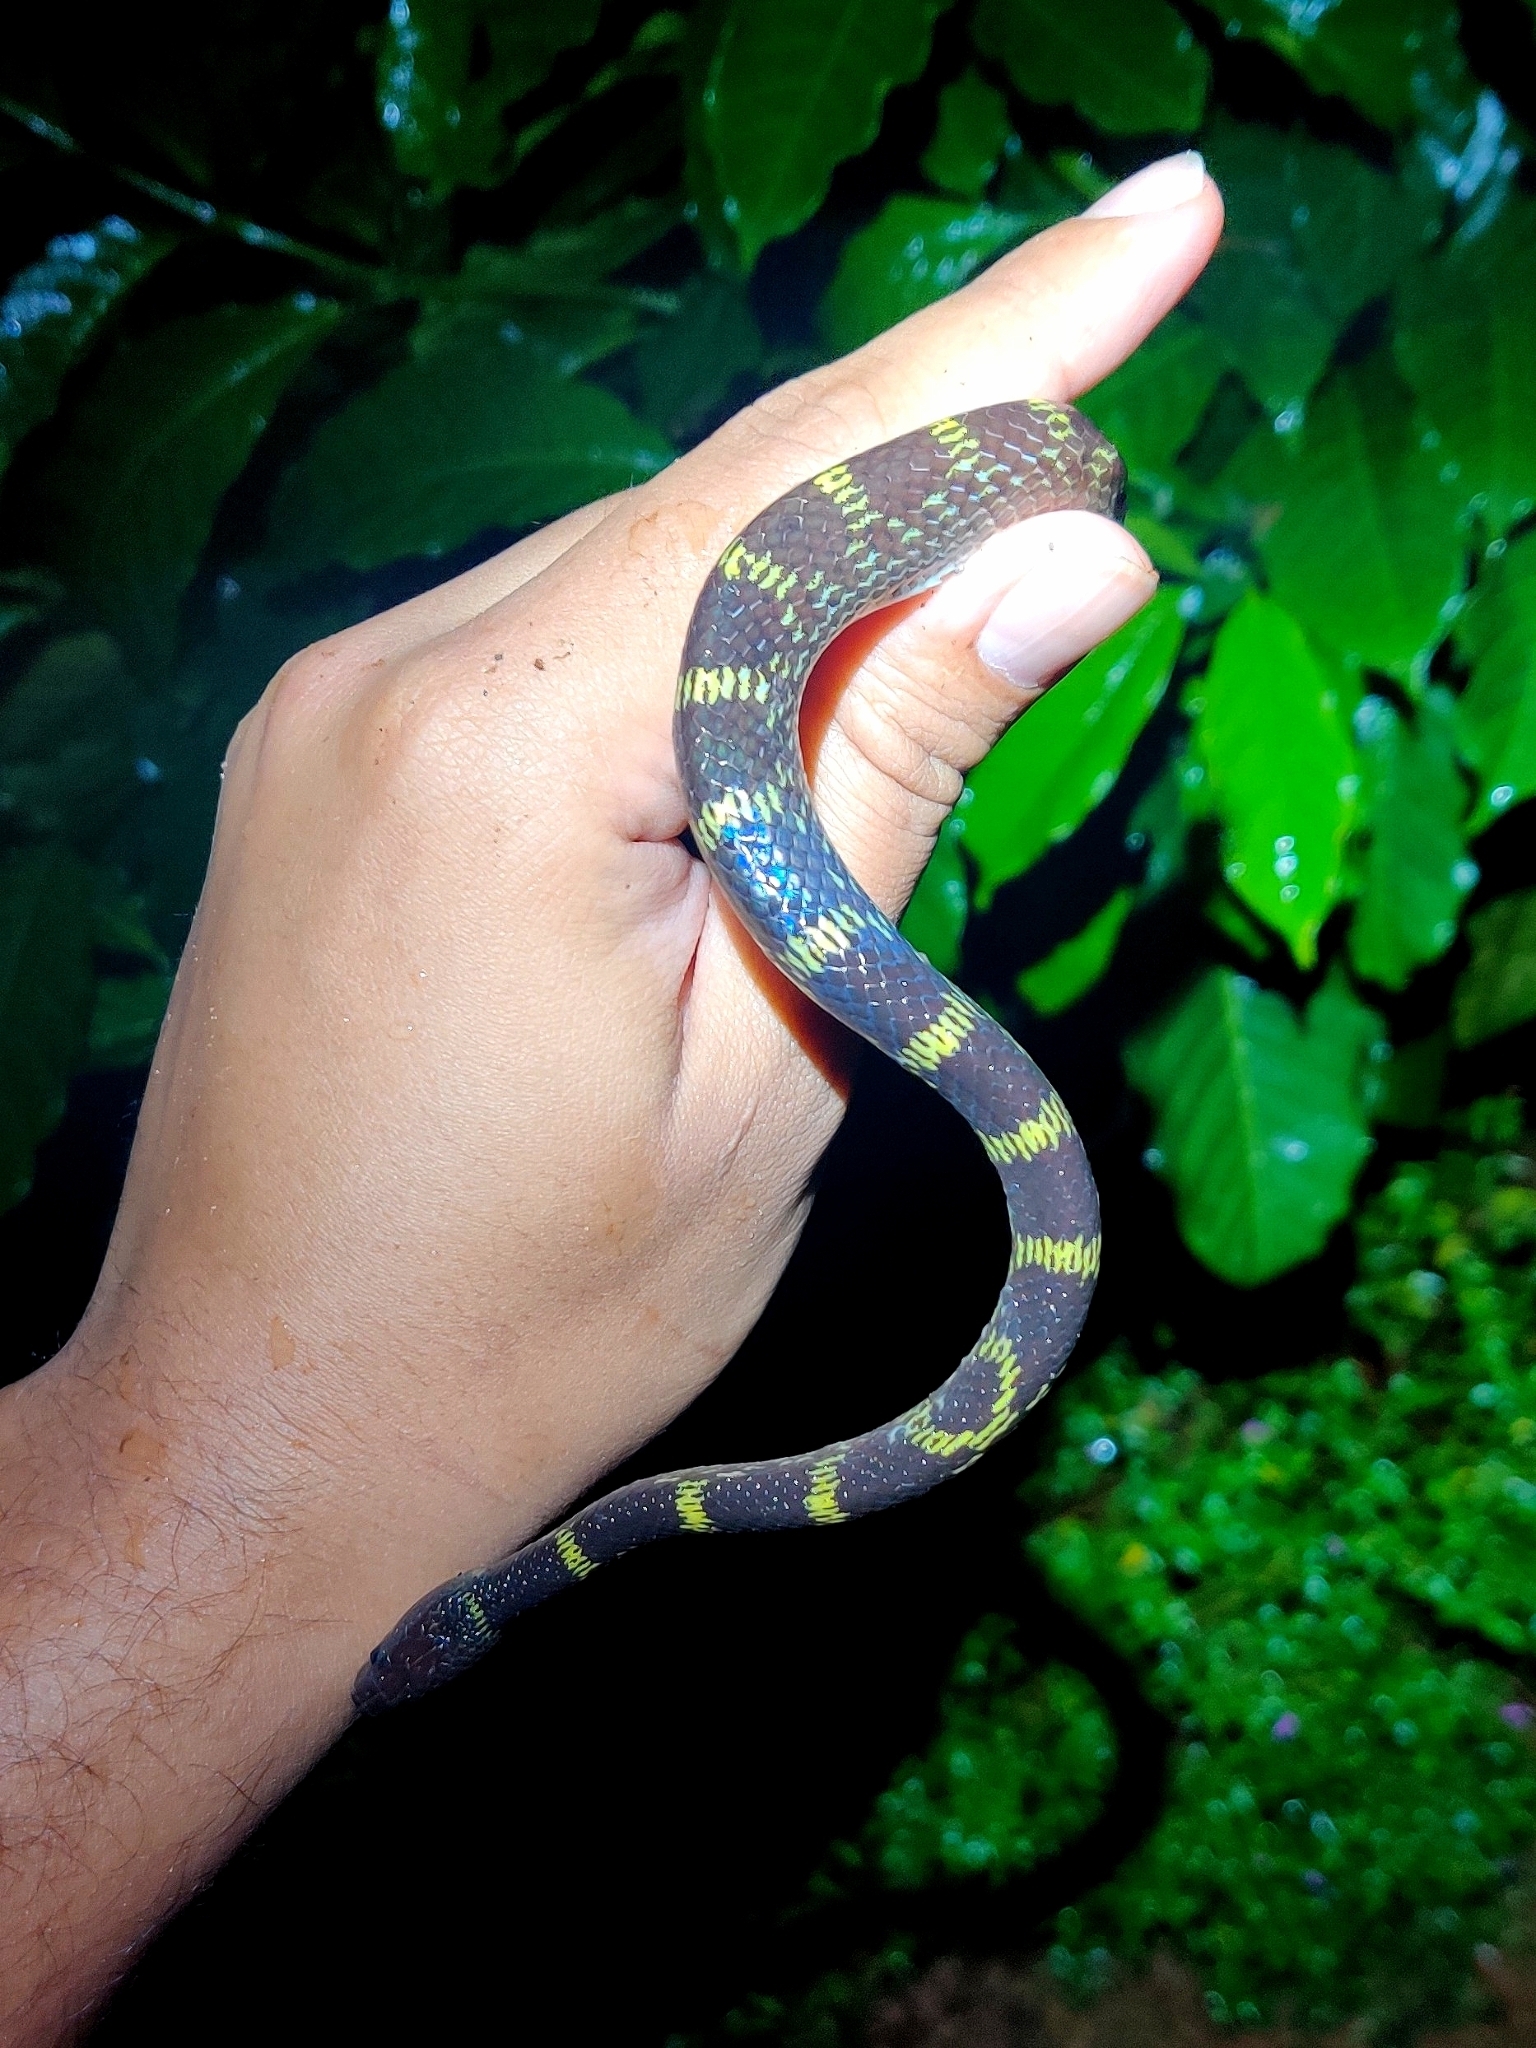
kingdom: Animalia
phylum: Chordata
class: Squamata
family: Colubridae
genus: Lycodon
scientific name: Lycodon travancoricus
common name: Travancore wolf snake
